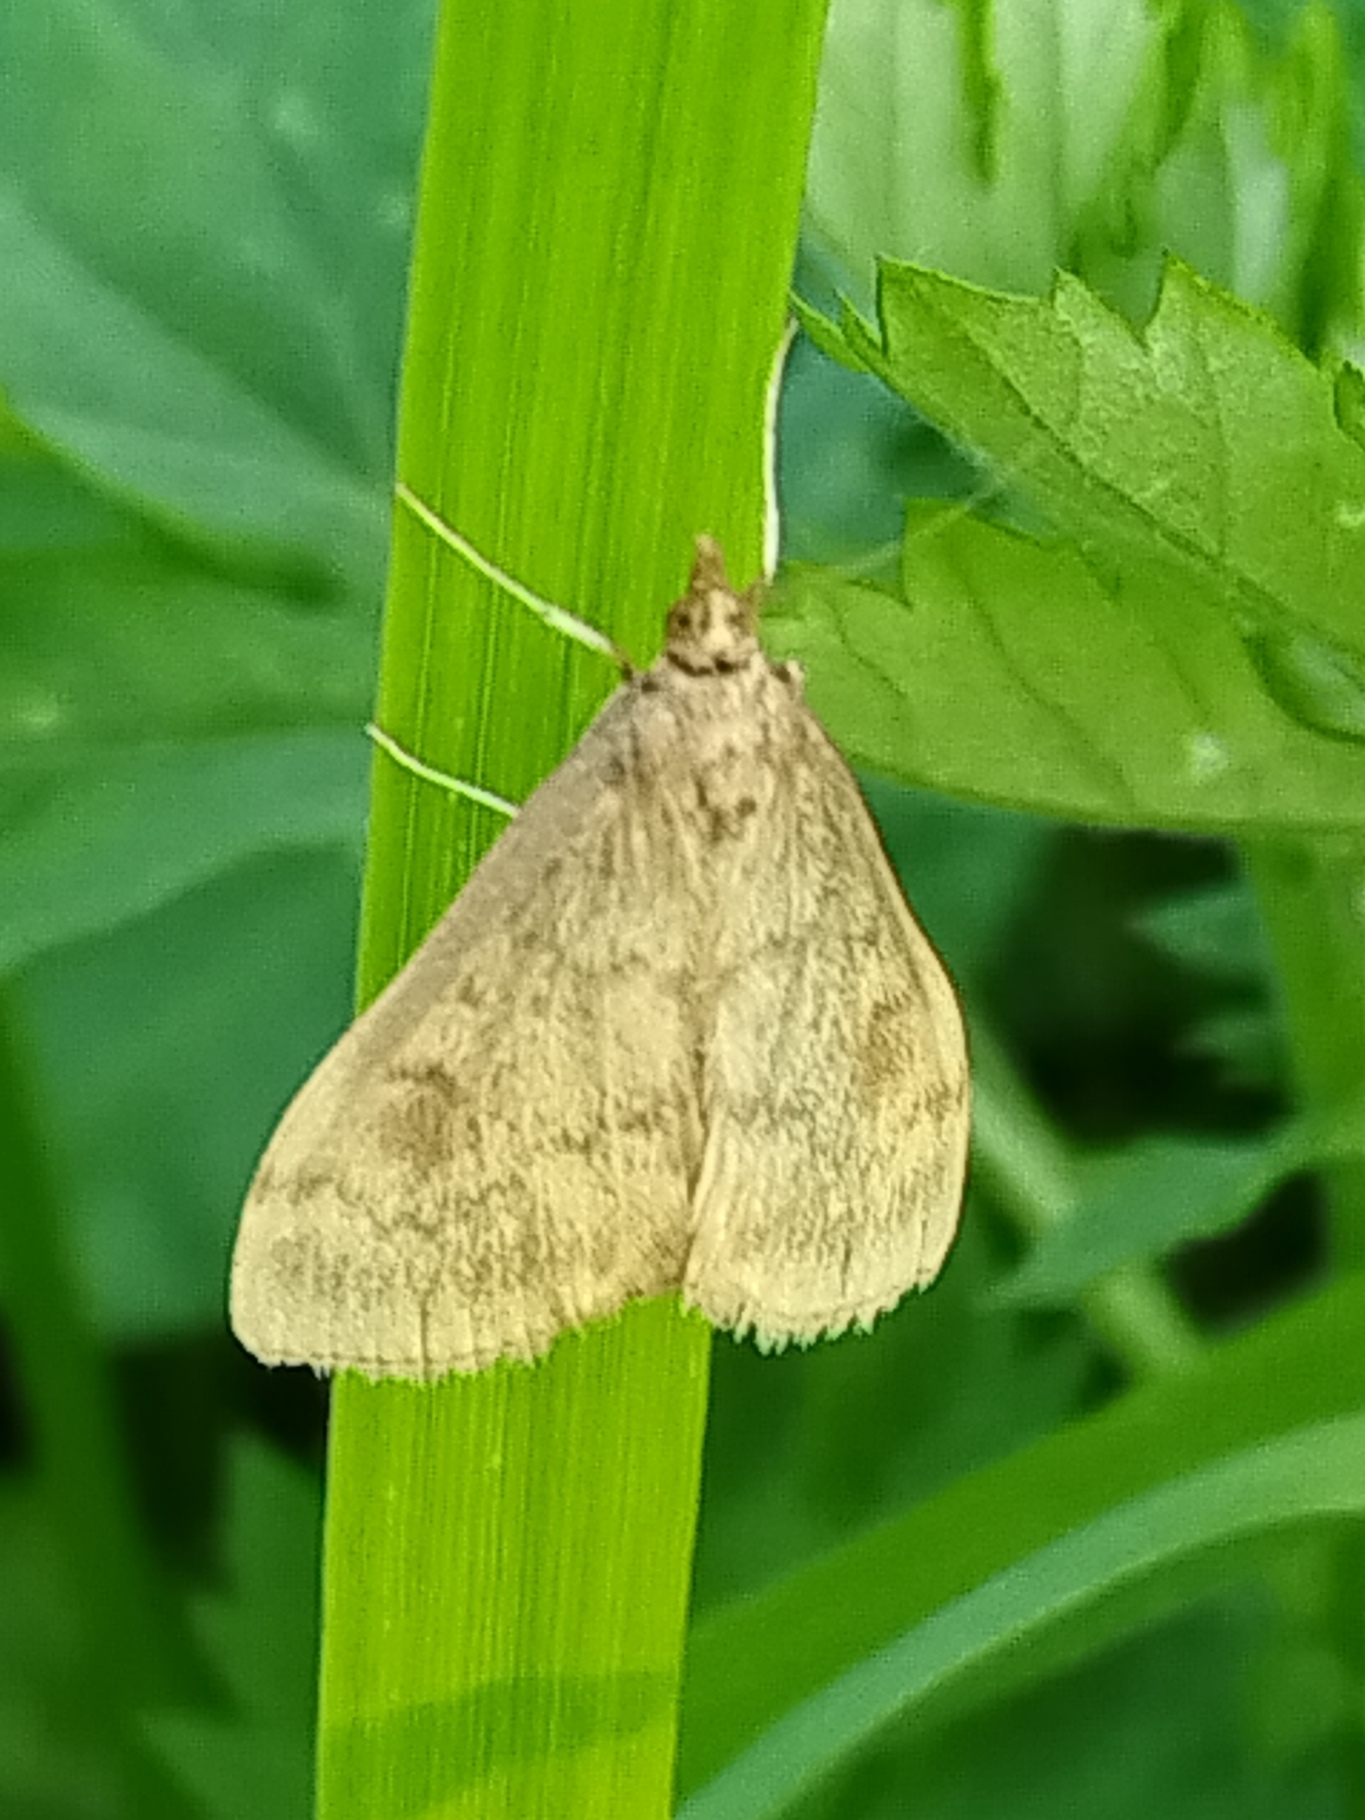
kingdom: Animalia
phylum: Arthropoda
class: Insecta
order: Lepidoptera
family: Crambidae
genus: Ostrinia
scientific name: Ostrinia nubilalis
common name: European corn borer
